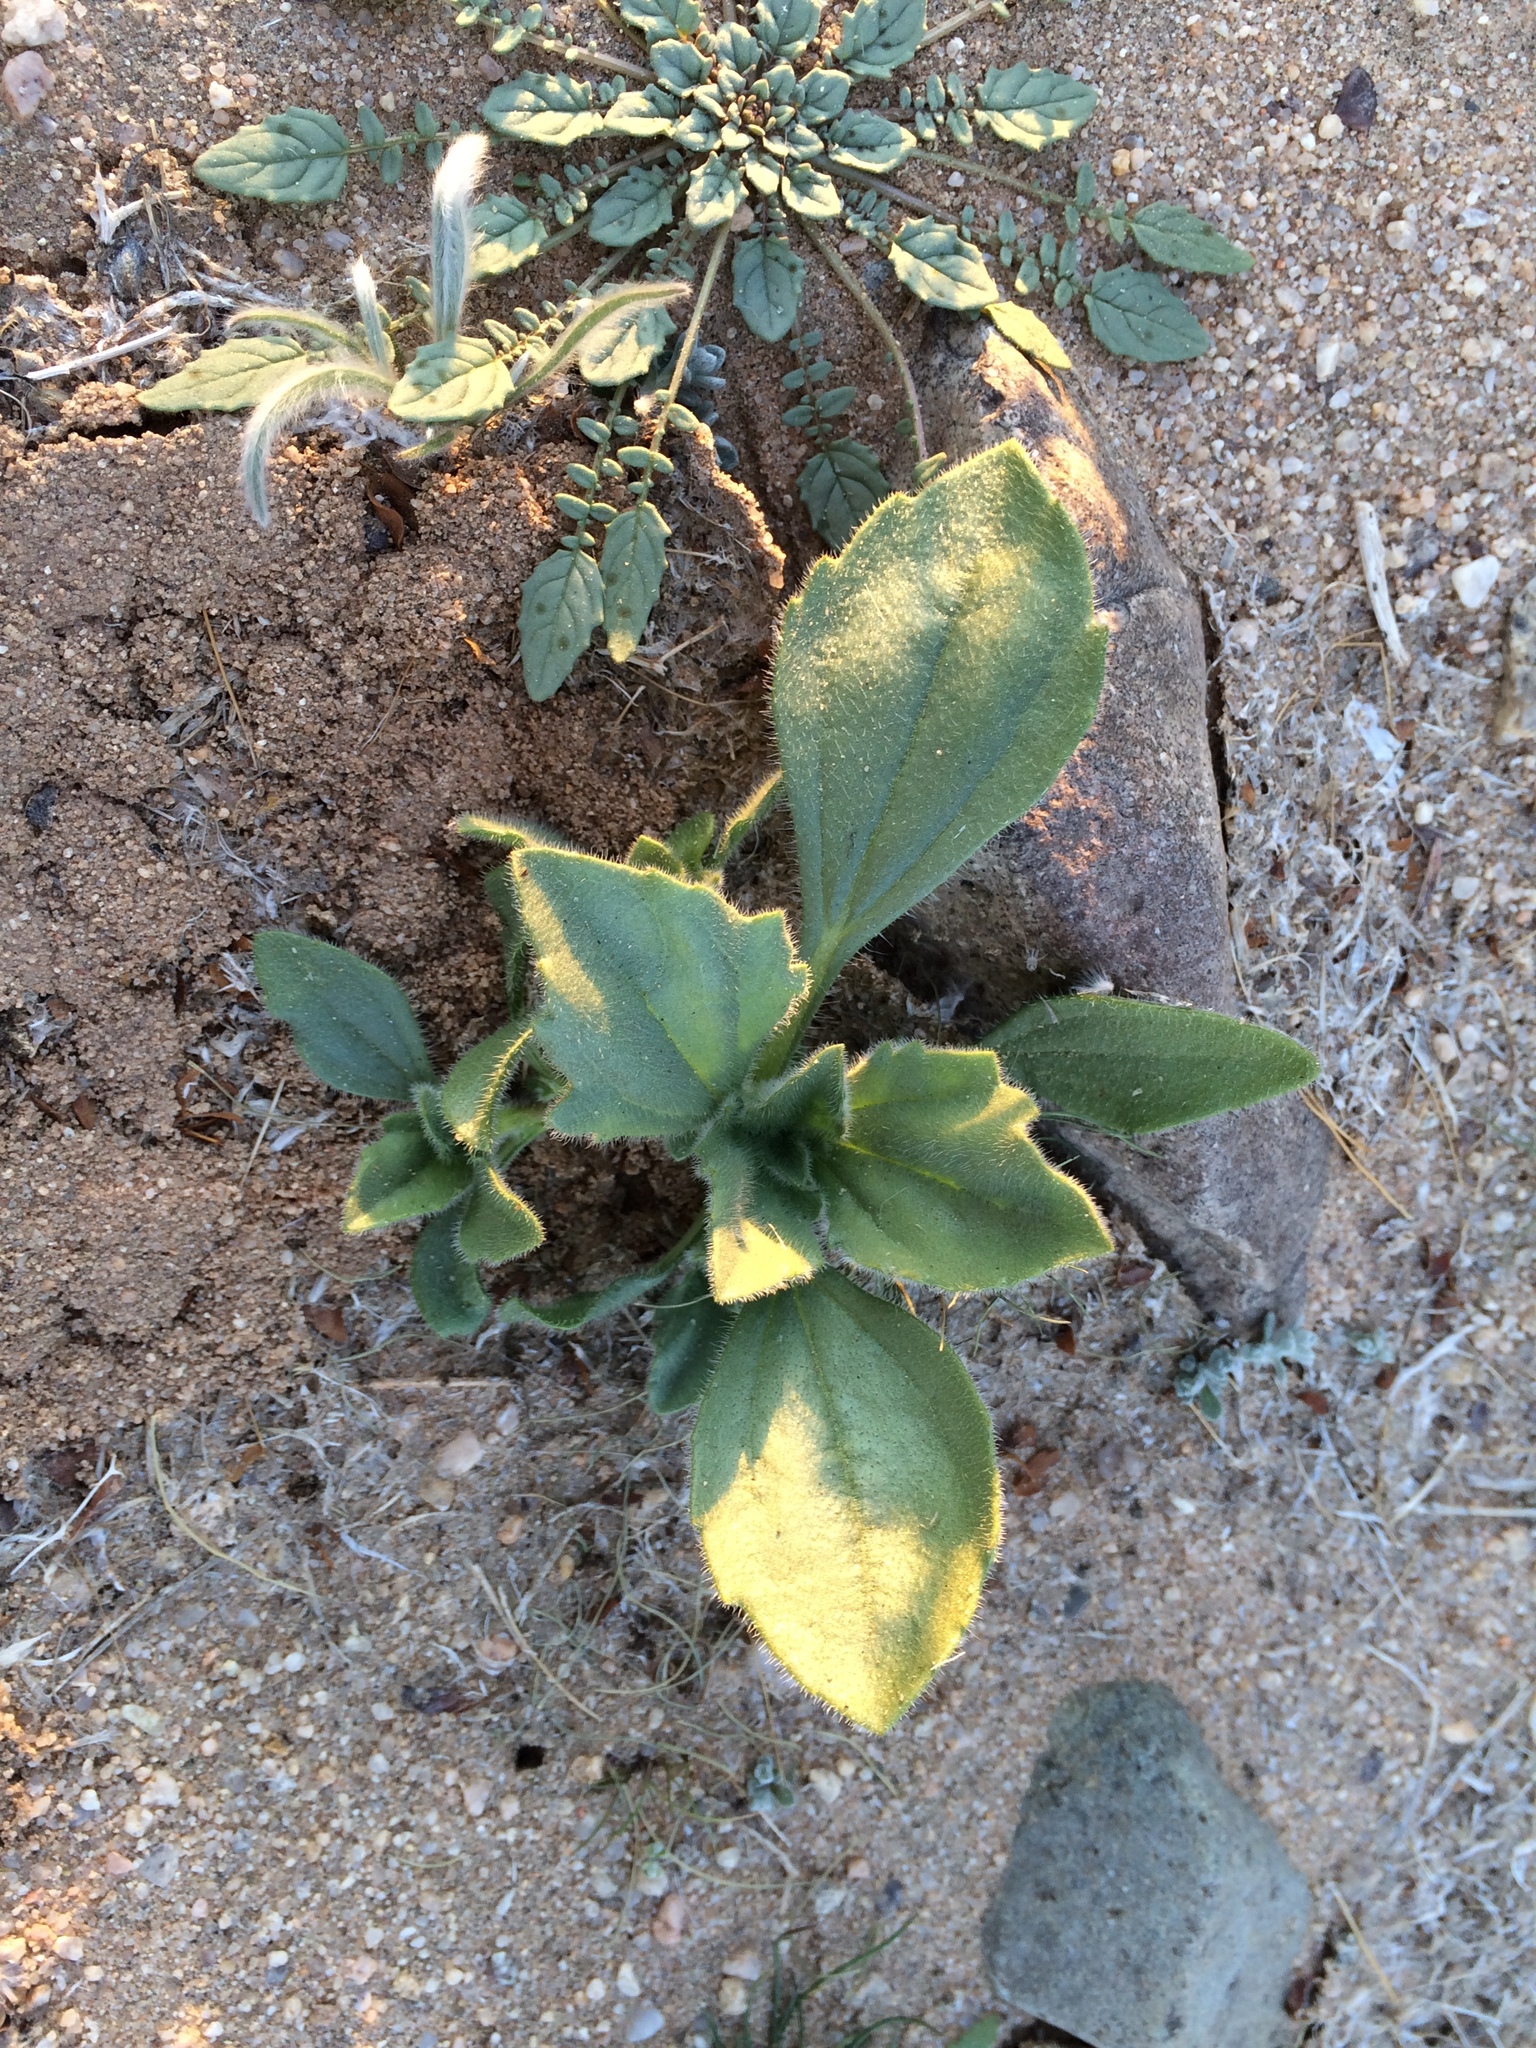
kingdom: Plantae
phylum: Tracheophyta
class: Magnoliopsida
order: Asterales
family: Asteraceae
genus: Geraea
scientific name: Geraea canescens
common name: Desert-gold
